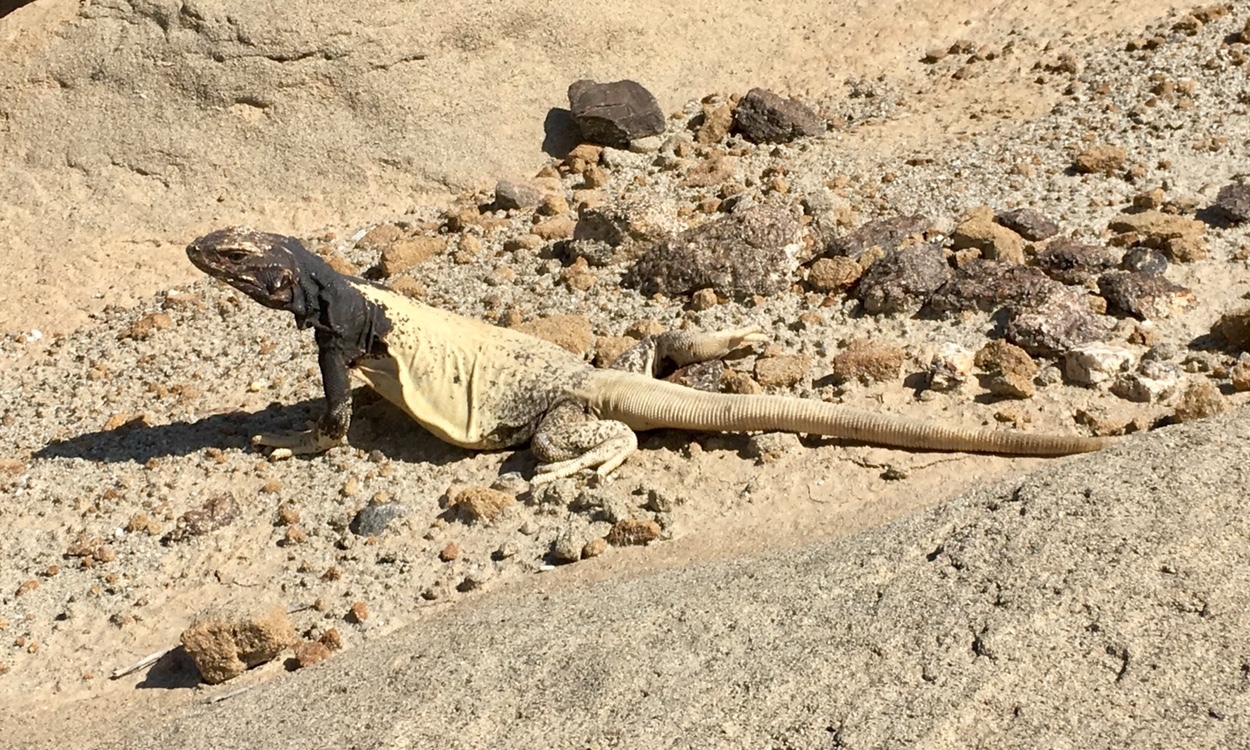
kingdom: Animalia
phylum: Chordata
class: Squamata
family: Iguanidae
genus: Sauromalus
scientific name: Sauromalus ater
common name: Northern chuckwalla
